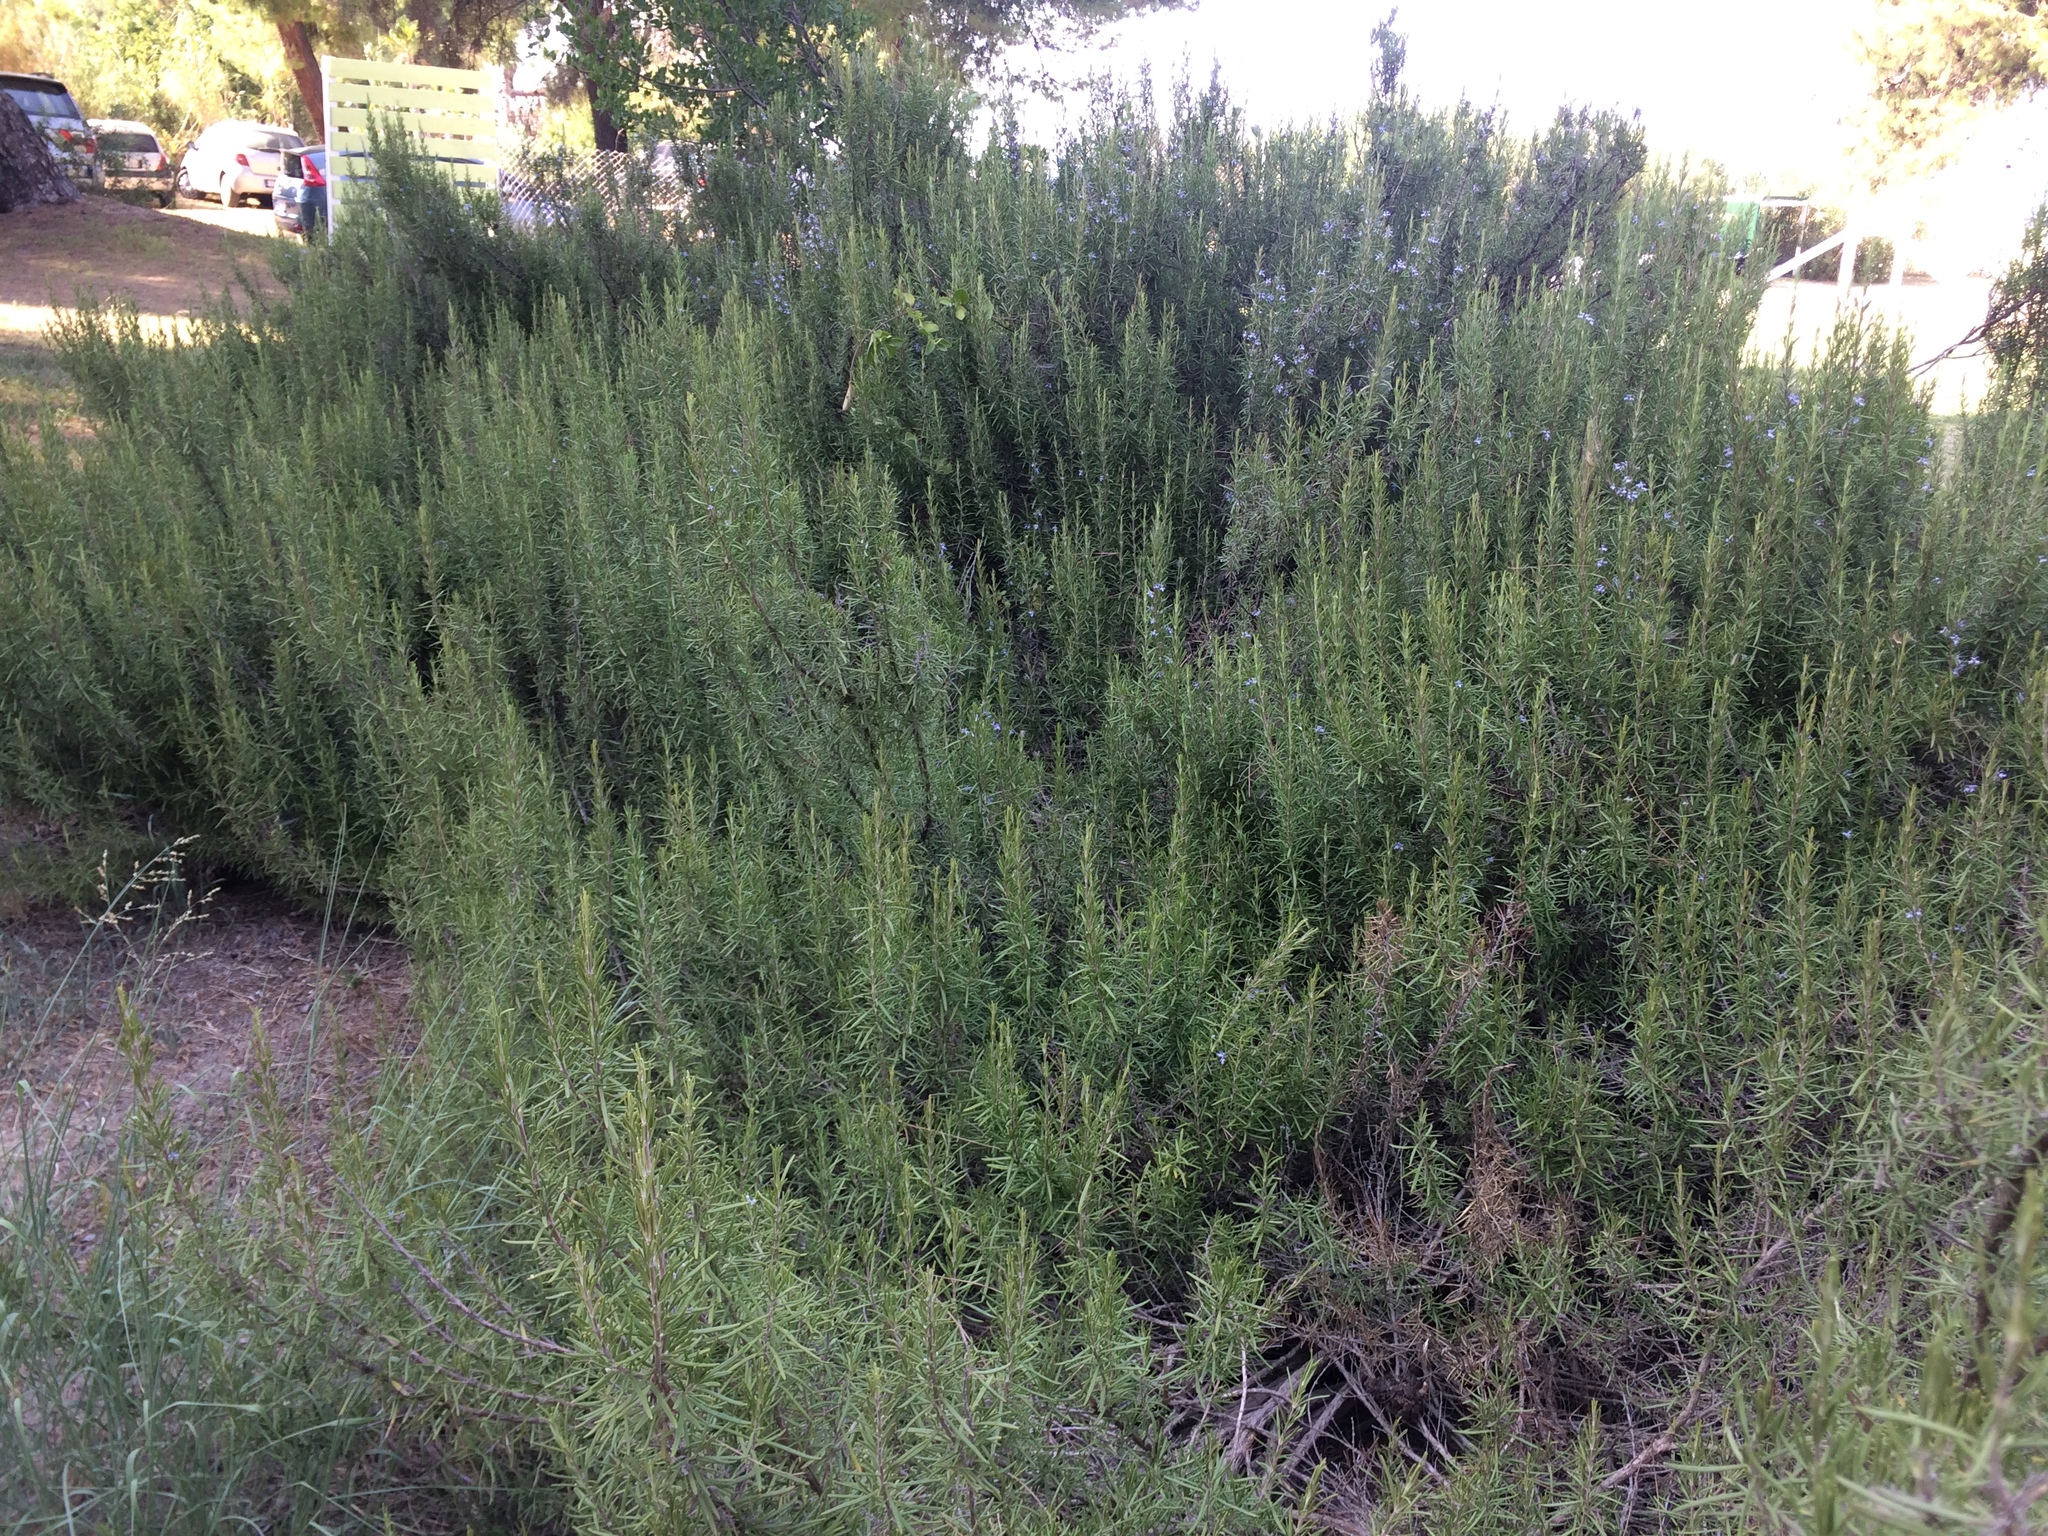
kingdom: Plantae
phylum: Tracheophyta
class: Magnoliopsida
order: Lamiales
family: Lamiaceae
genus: Salvia
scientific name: Salvia rosmarinus
